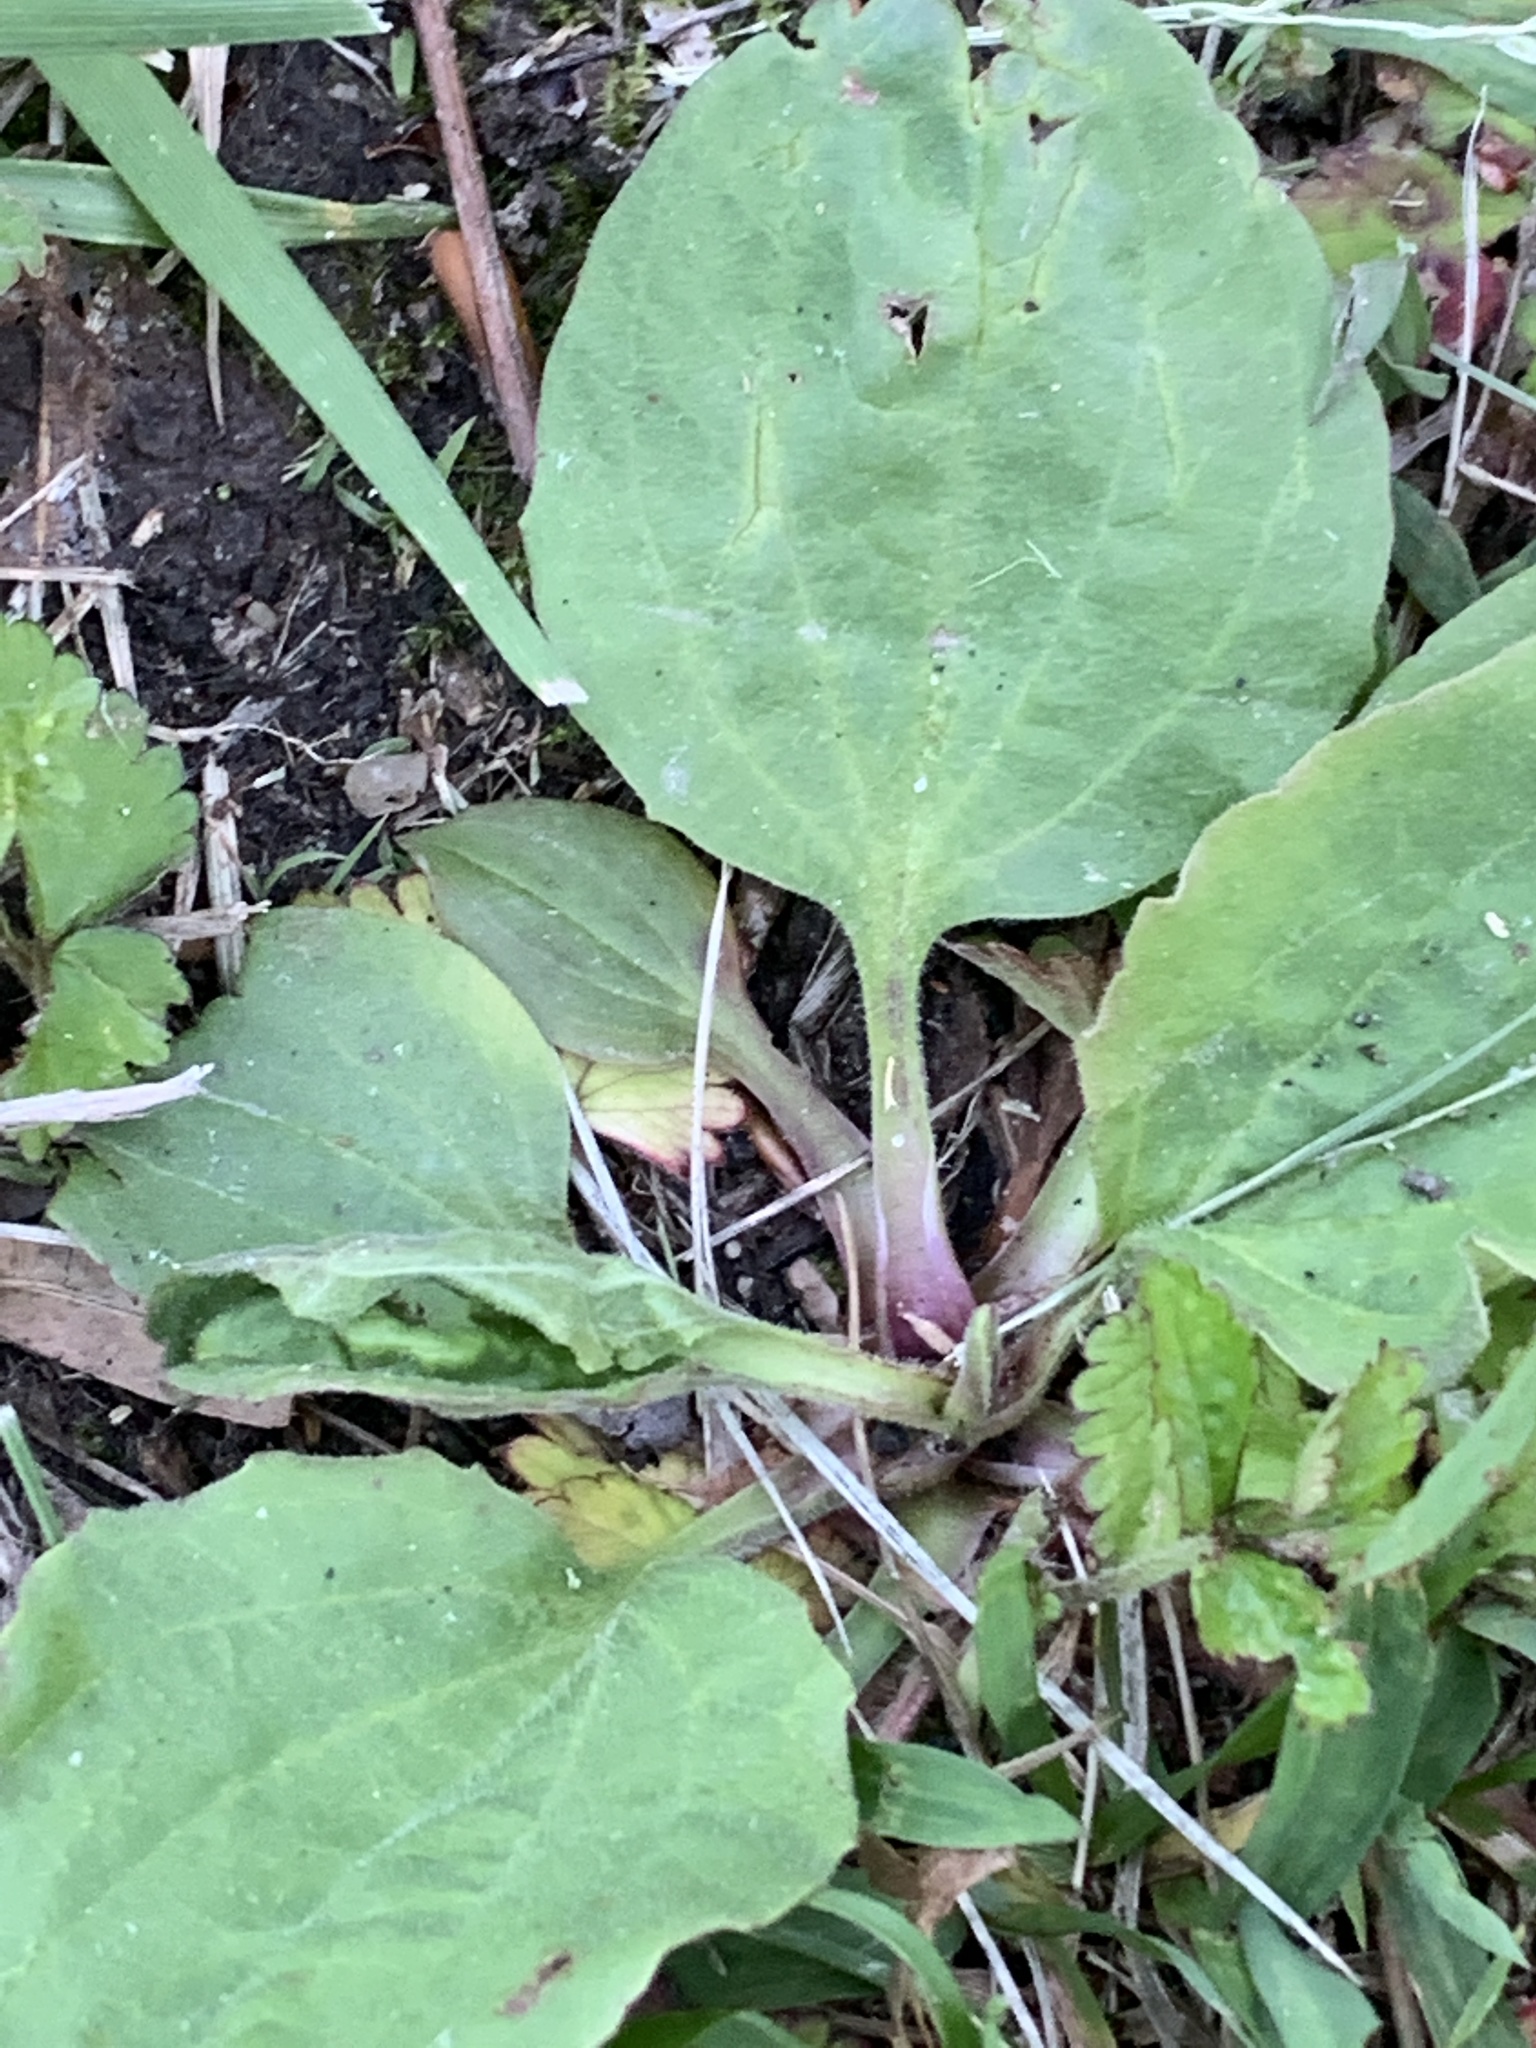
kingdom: Plantae
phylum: Tracheophyta
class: Magnoliopsida
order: Lamiales
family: Plantaginaceae
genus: Plantago
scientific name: Plantago rugelii
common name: American plantain
